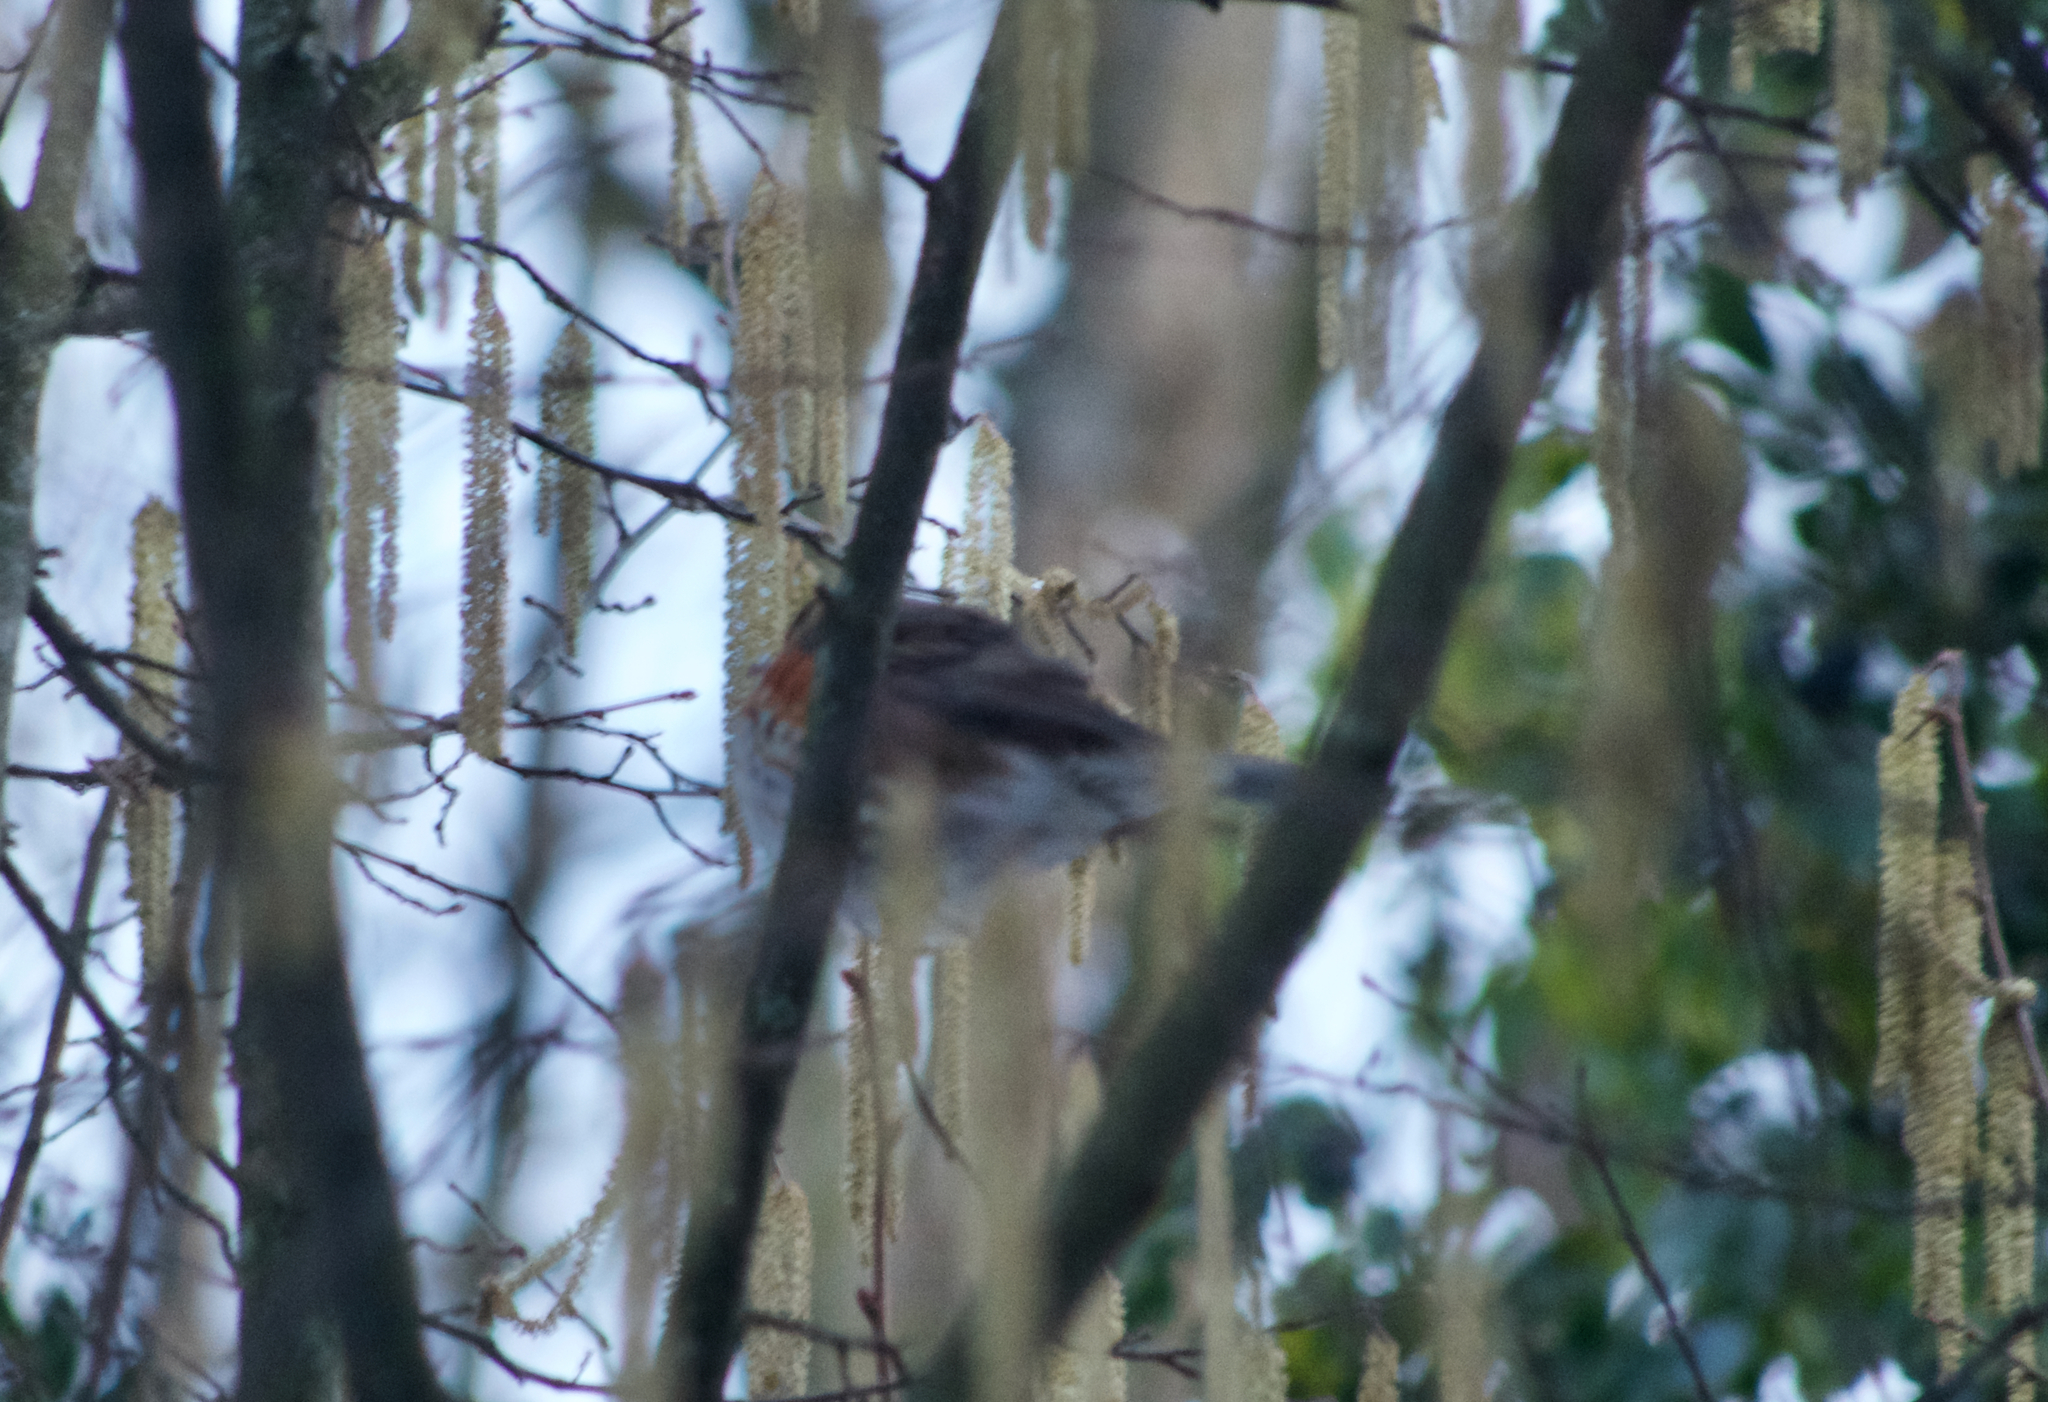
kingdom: Animalia
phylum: Chordata
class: Aves
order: Passeriformes
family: Turdidae
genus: Turdus
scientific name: Turdus iliacus
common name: Redwing
